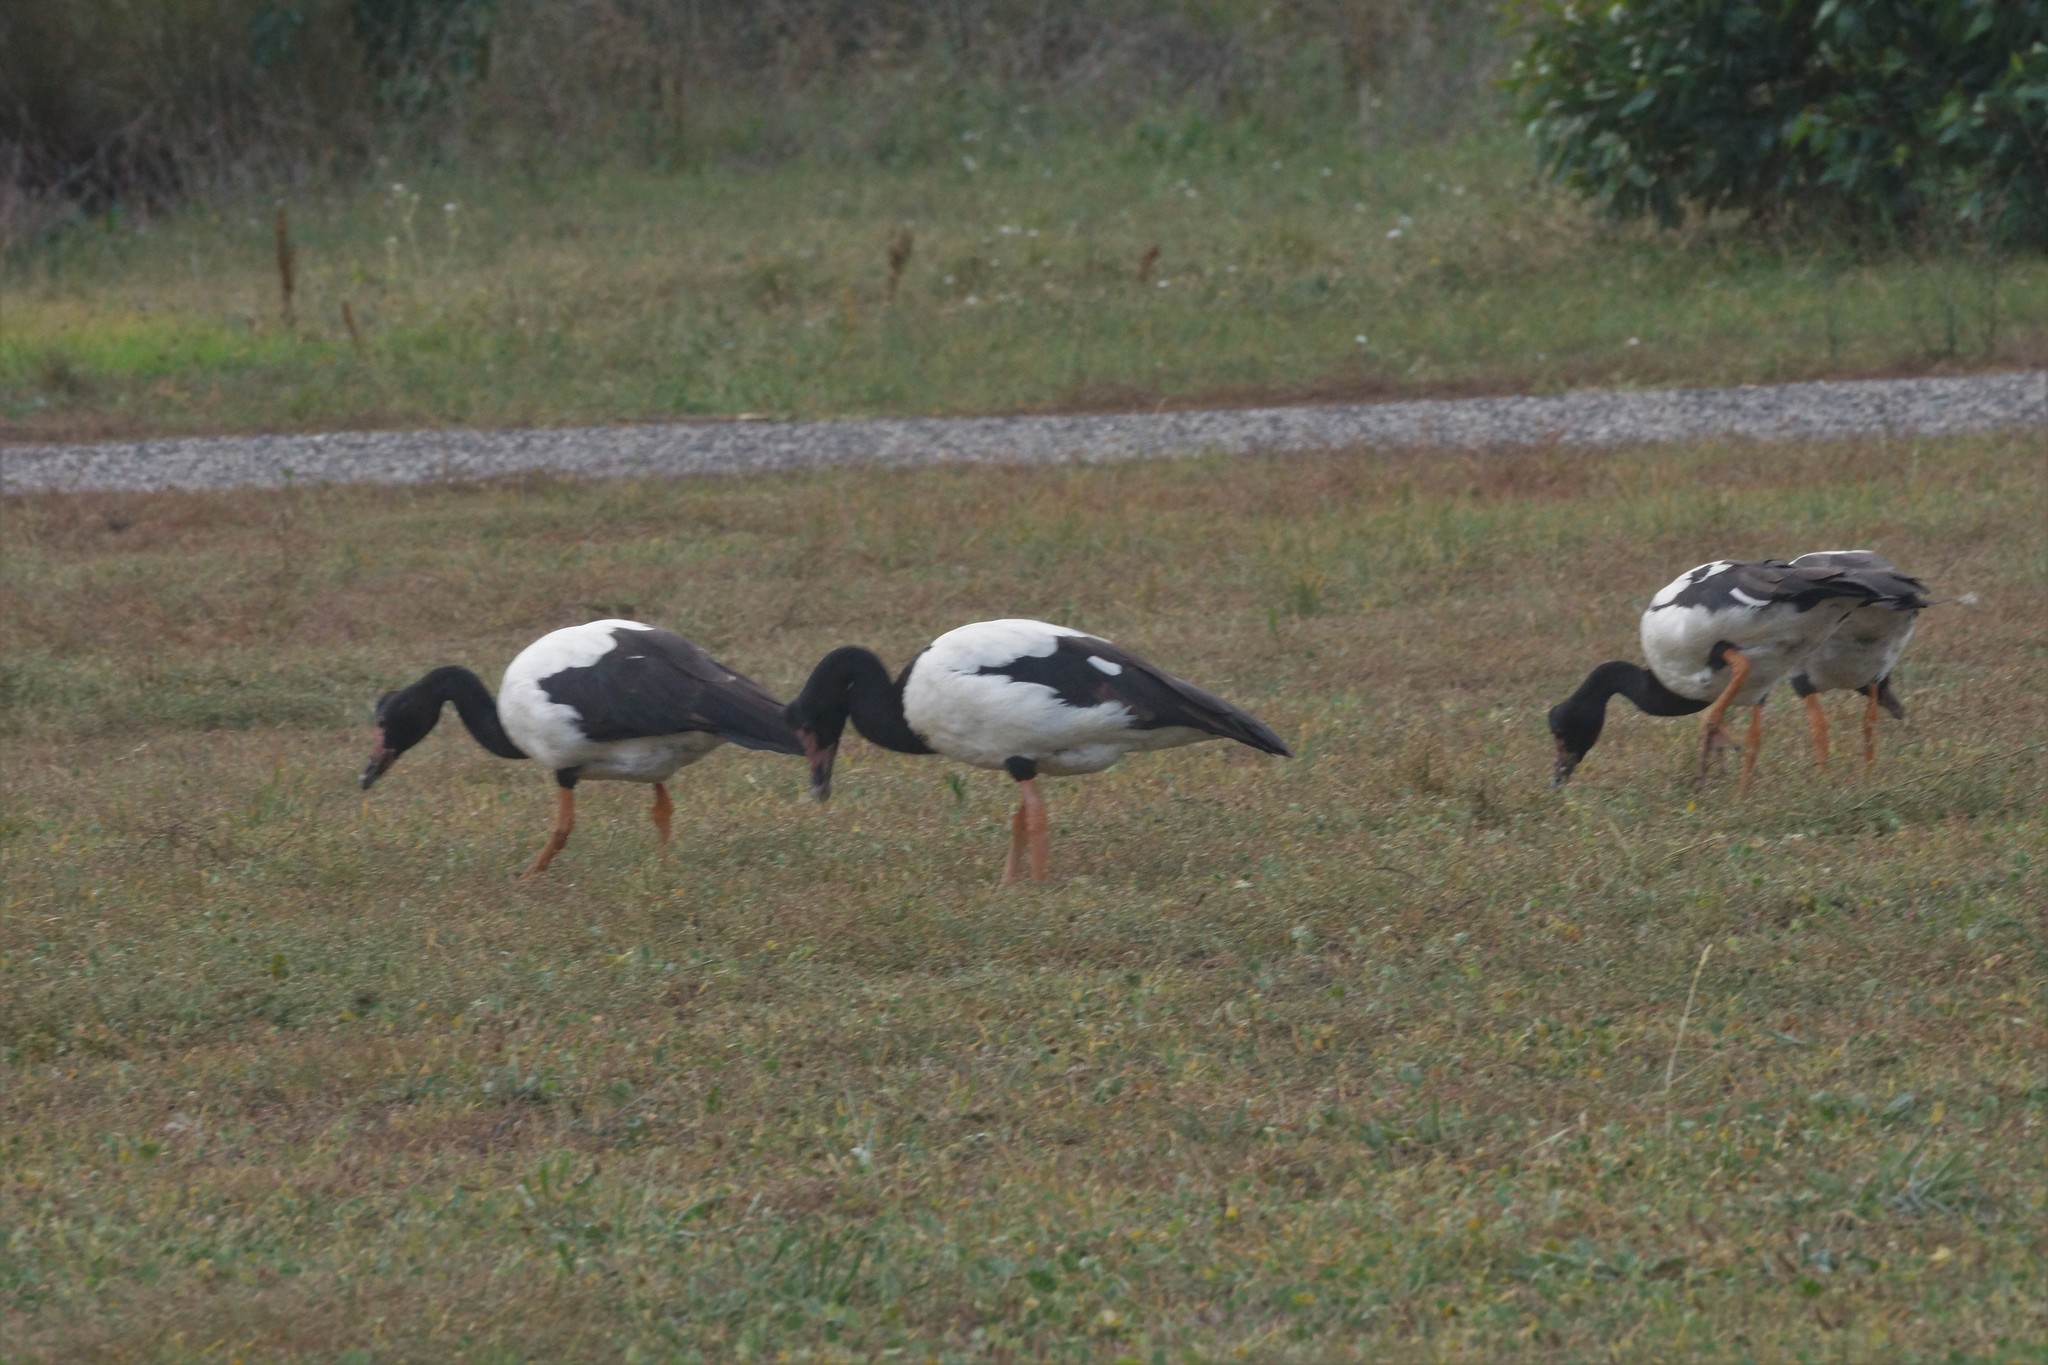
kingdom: Animalia
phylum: Chordata
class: Aves
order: Anseriformes
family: Anseranatidae
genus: Anseranas
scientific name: Anseranas semipalmata
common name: Magpie goose
